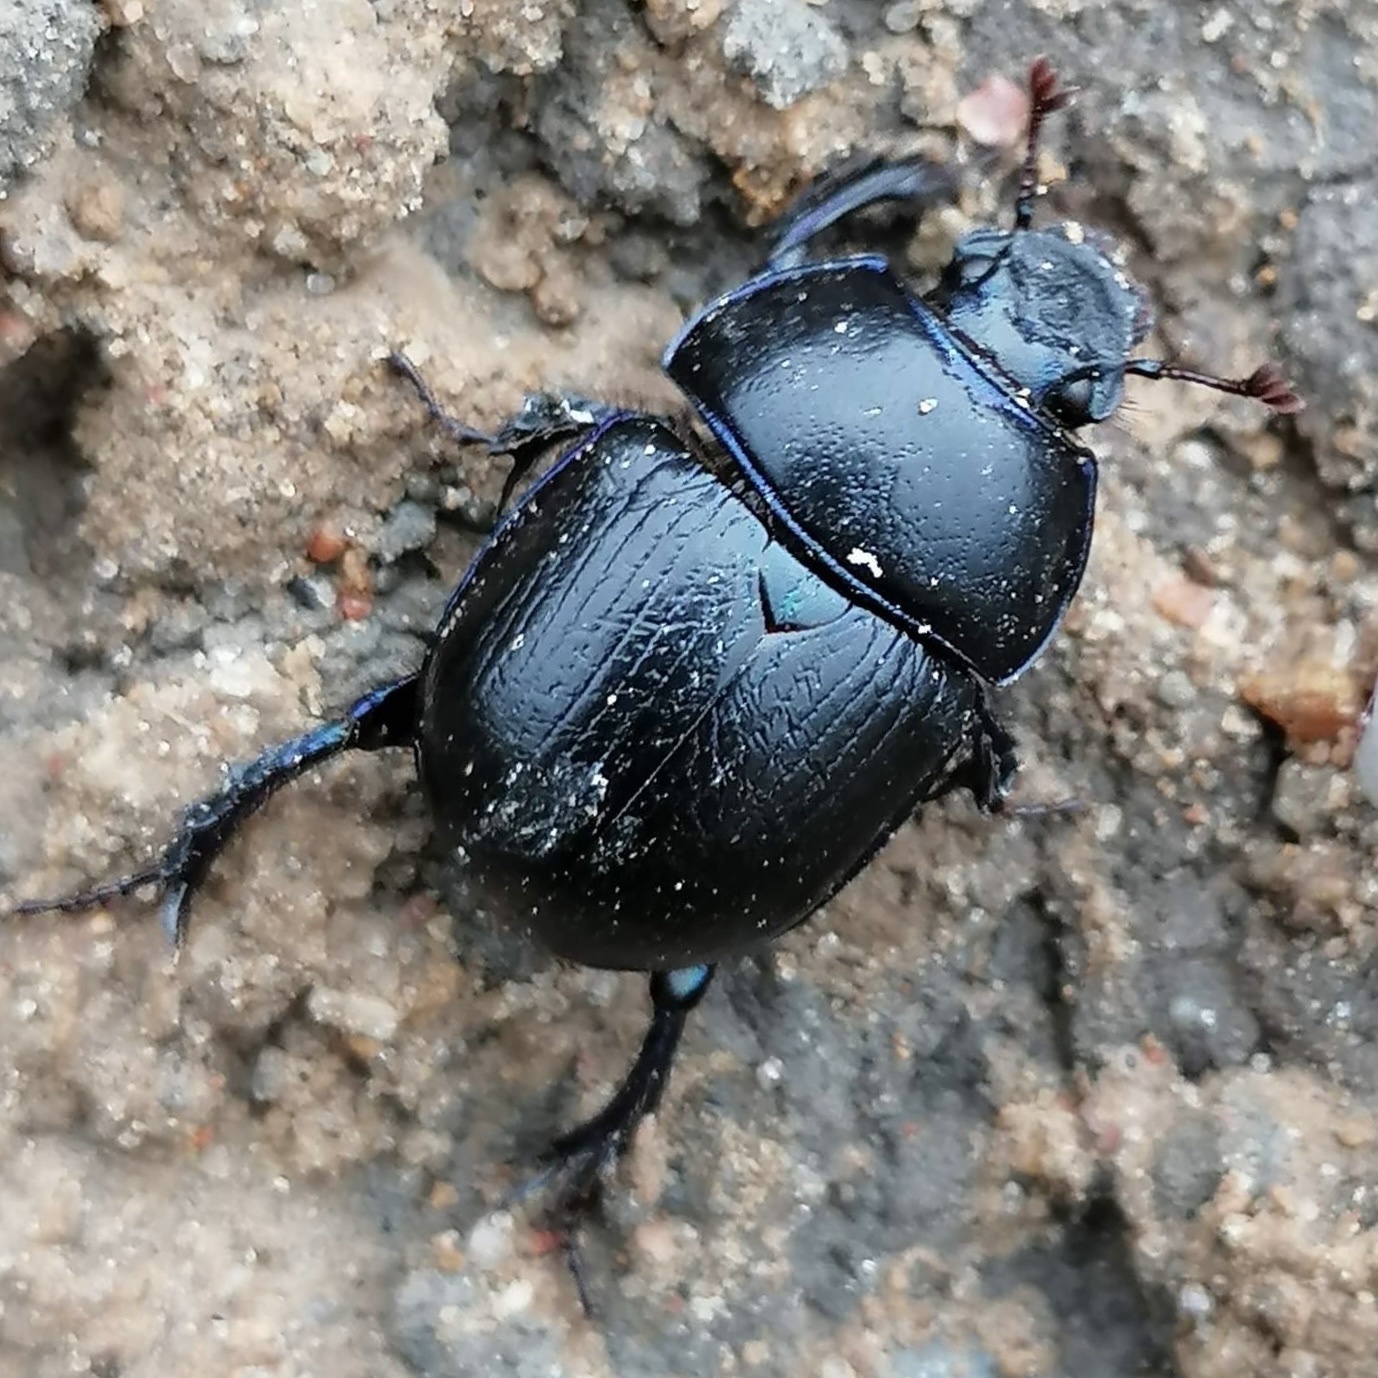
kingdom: Animalia
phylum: Arthropoda
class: Insecta
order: Coleoptera
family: Geotrupidae
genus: Anoplotrupes
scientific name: Anoplotrupes stercorosus
